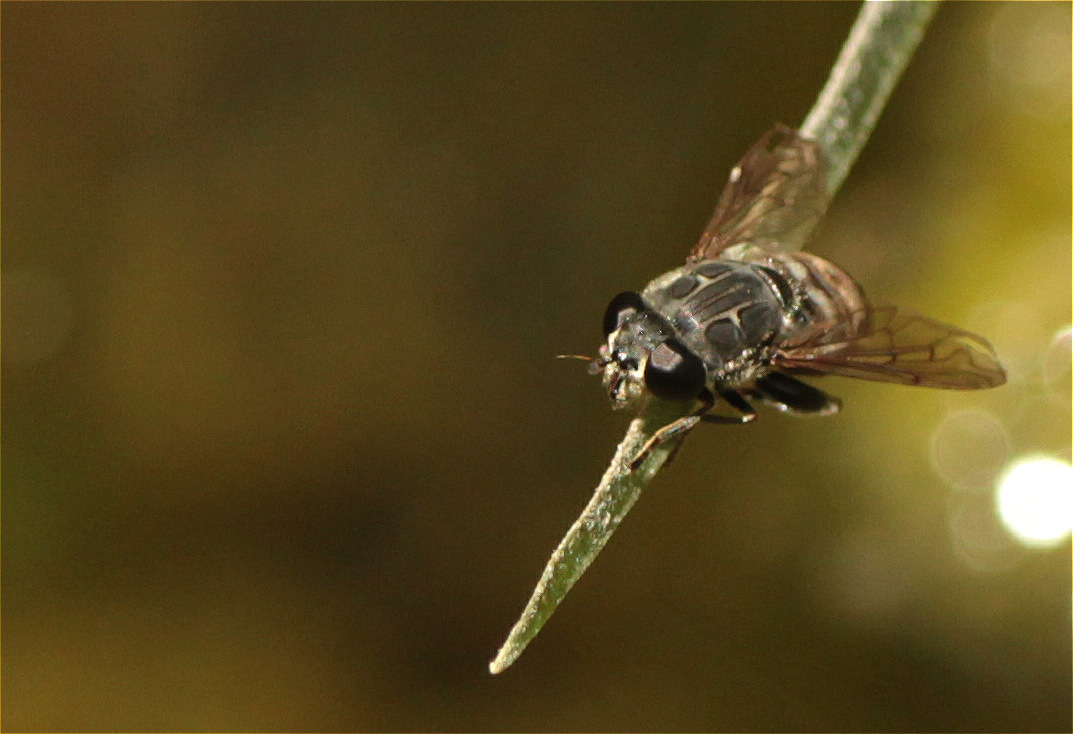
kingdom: Animalia
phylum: Arthropoda
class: Insecta
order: Diptera
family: Syrphidae
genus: Asemosyrphus
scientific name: Asemosyrphus
